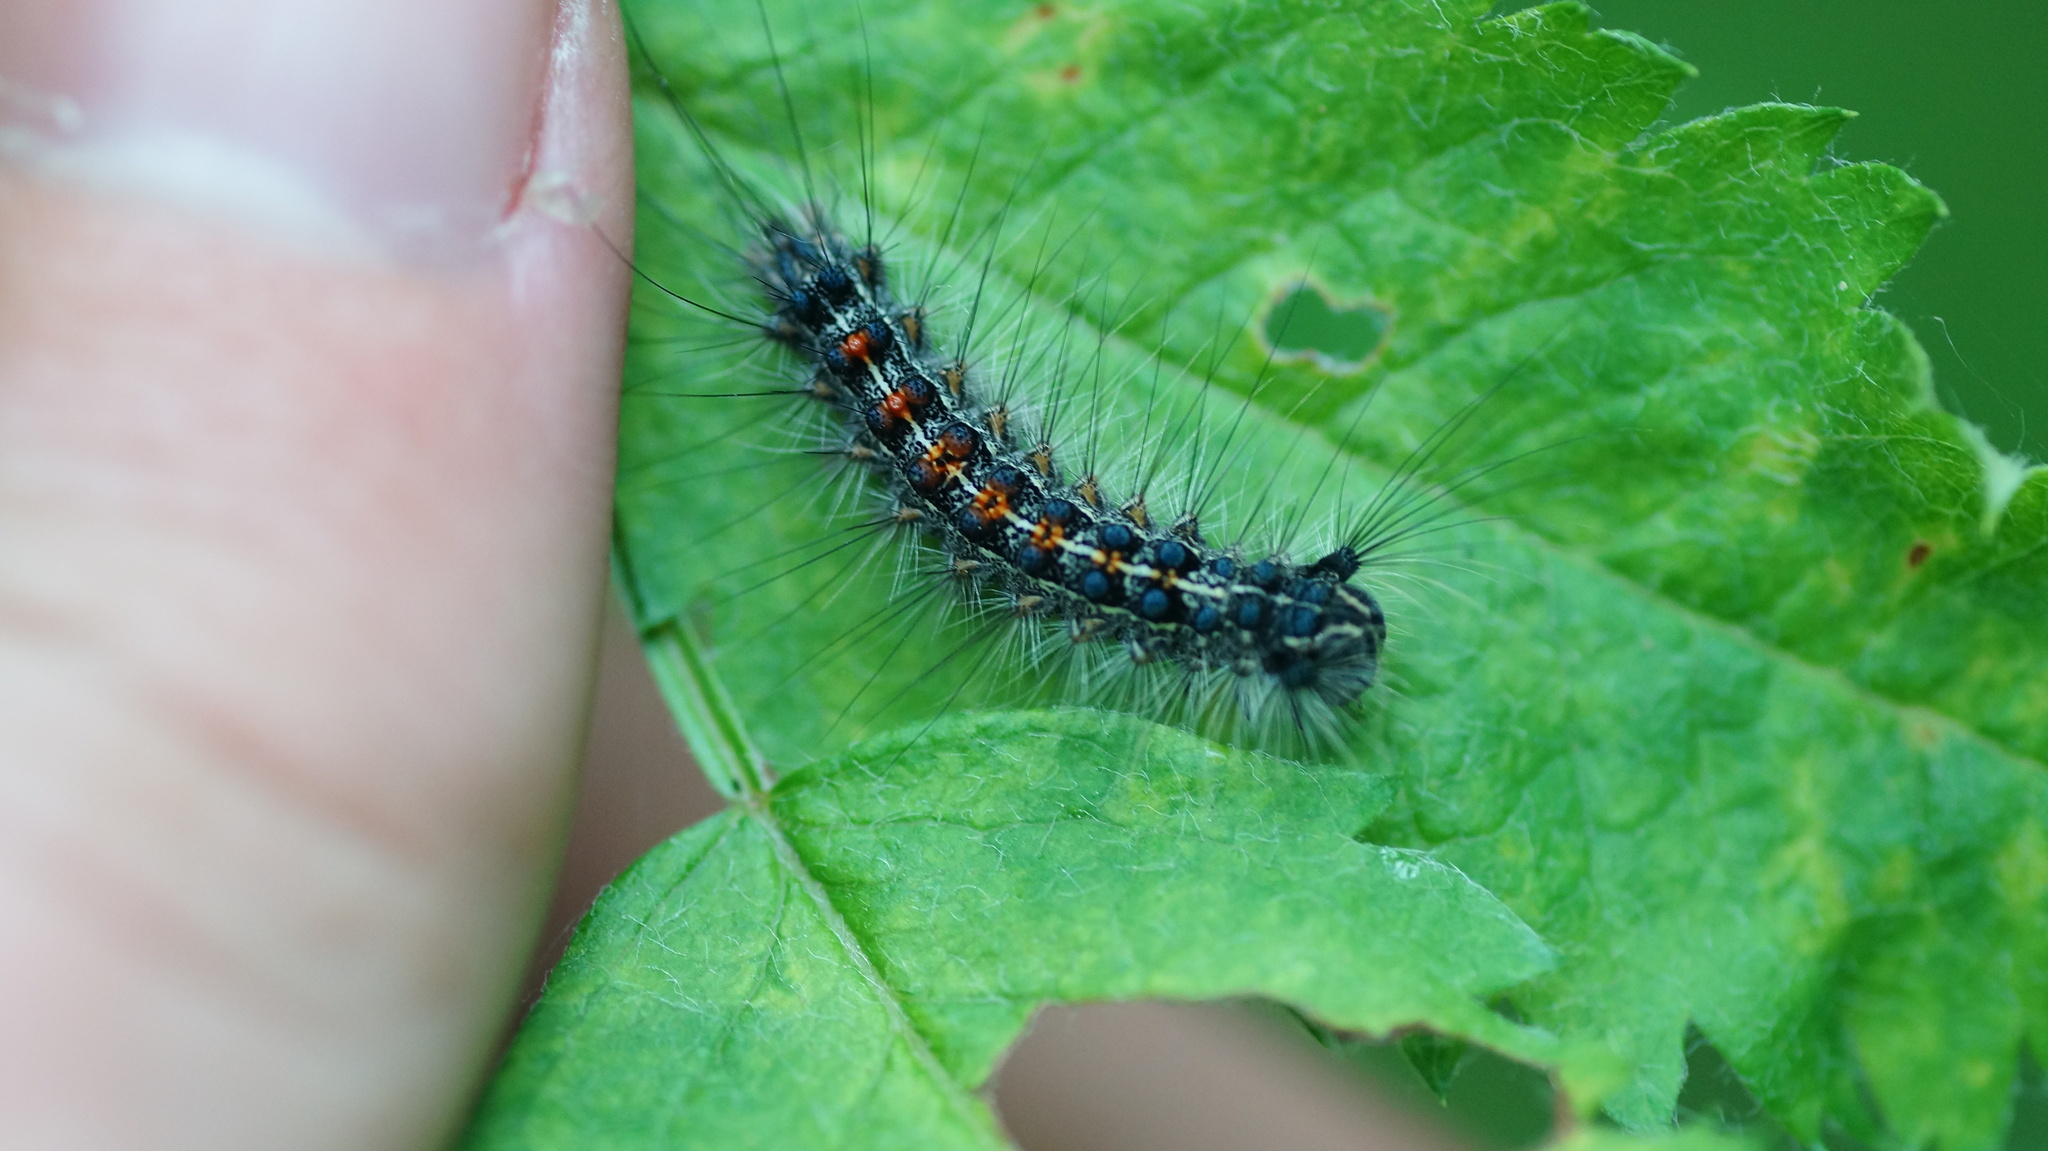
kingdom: Animalia
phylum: Arthropoda
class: Insecta
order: Lepidoptera
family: Erebidae
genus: Lymantria
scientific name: Lymantria dispar
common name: Gypsy moth
